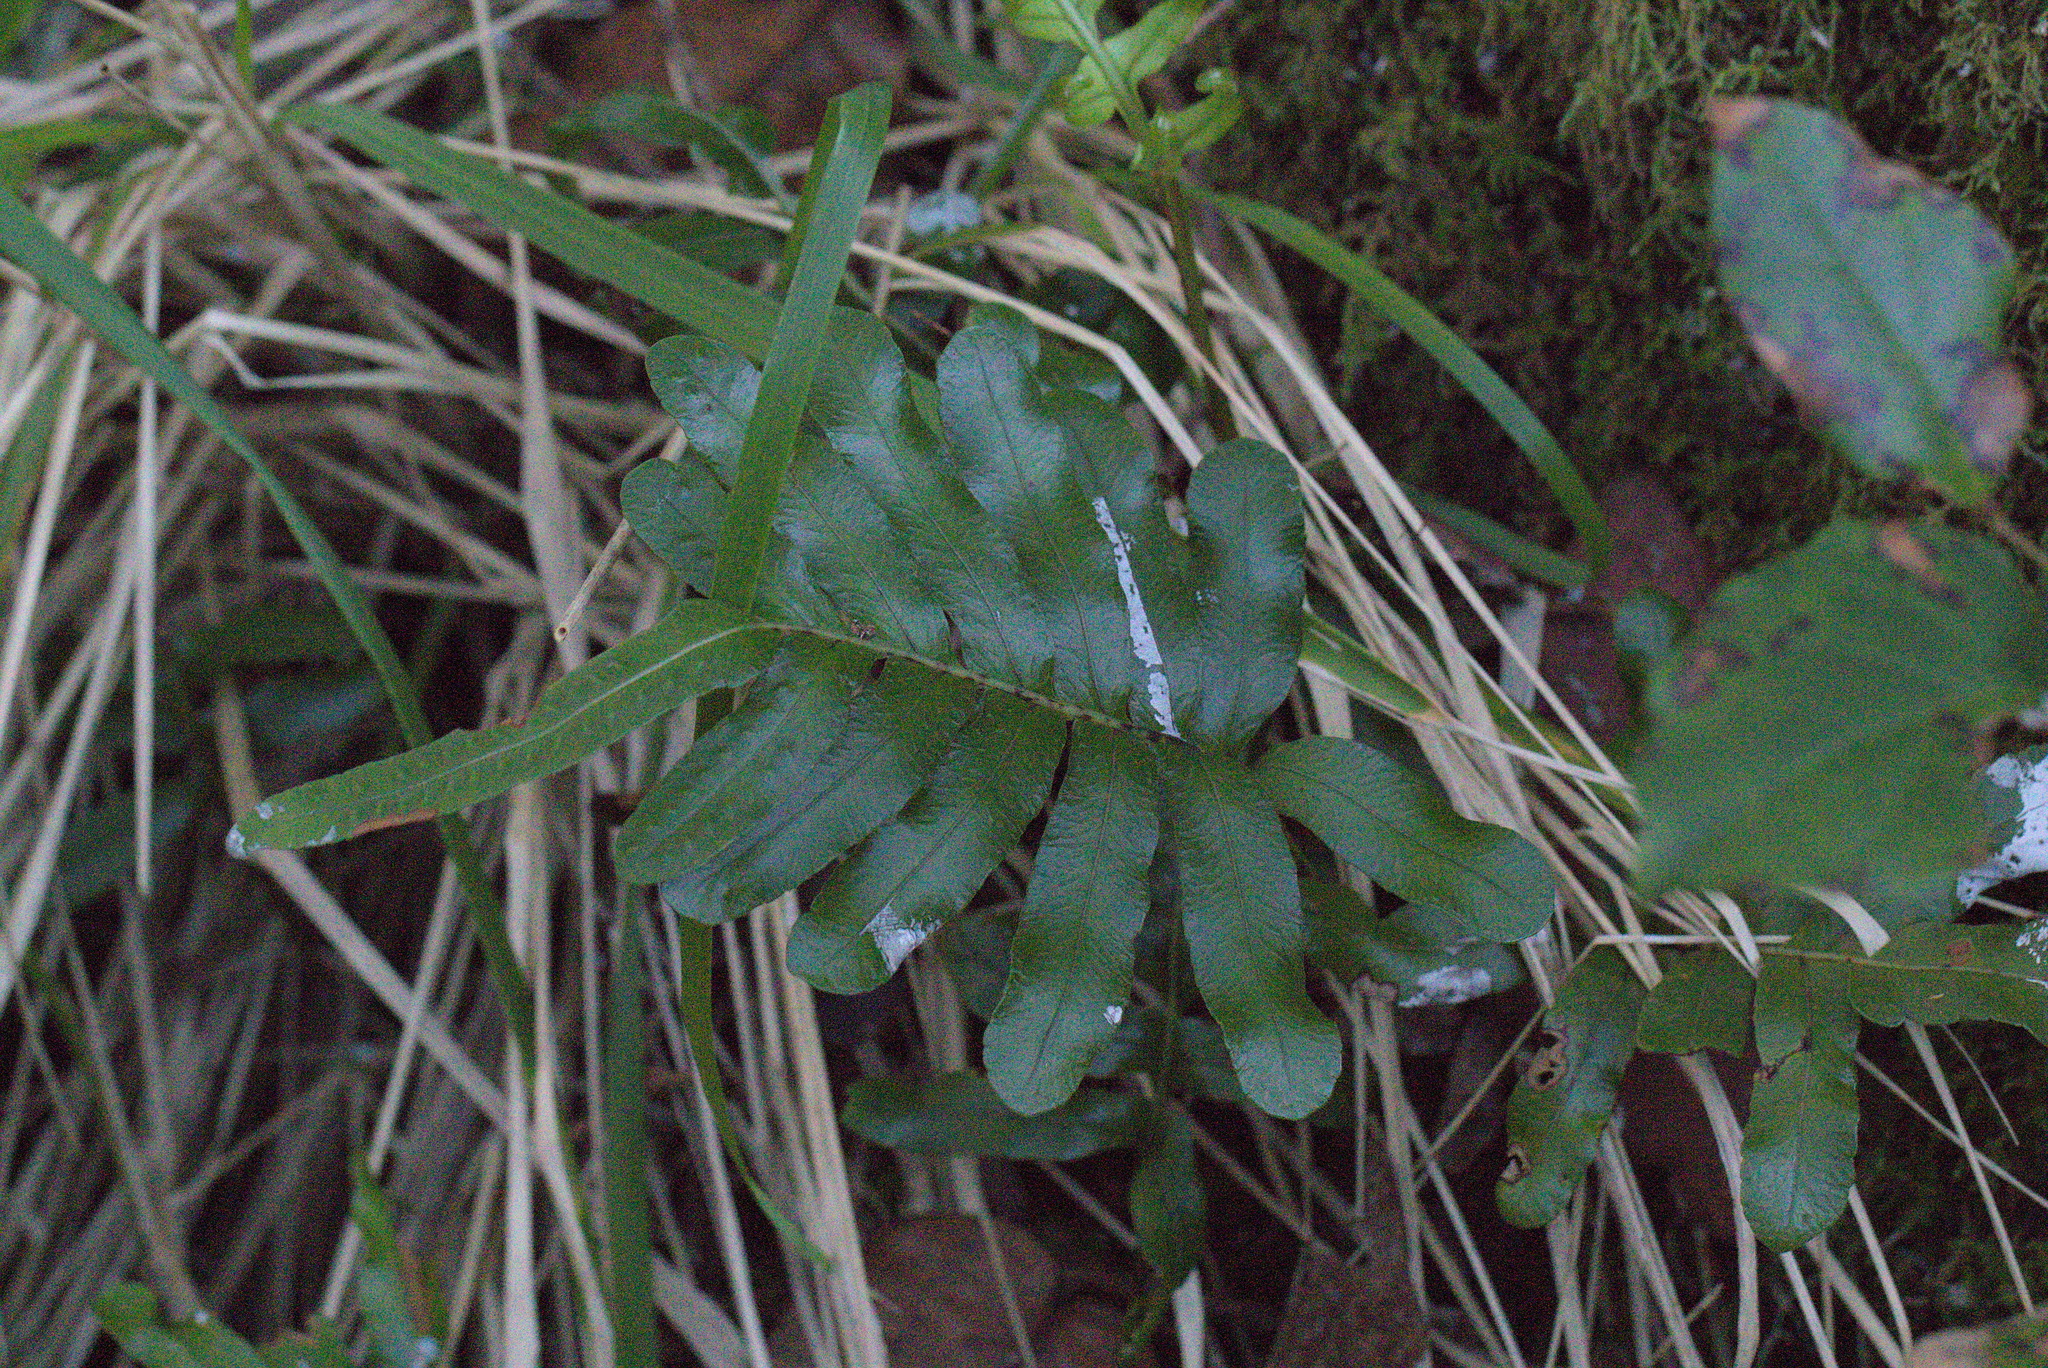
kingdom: Plantae
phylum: Tracheophyta
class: Polypodiopsida
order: Polypodiales
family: Polypodiaceae
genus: Polypodium
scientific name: Polypodium scouleri
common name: Scouler's polypody
